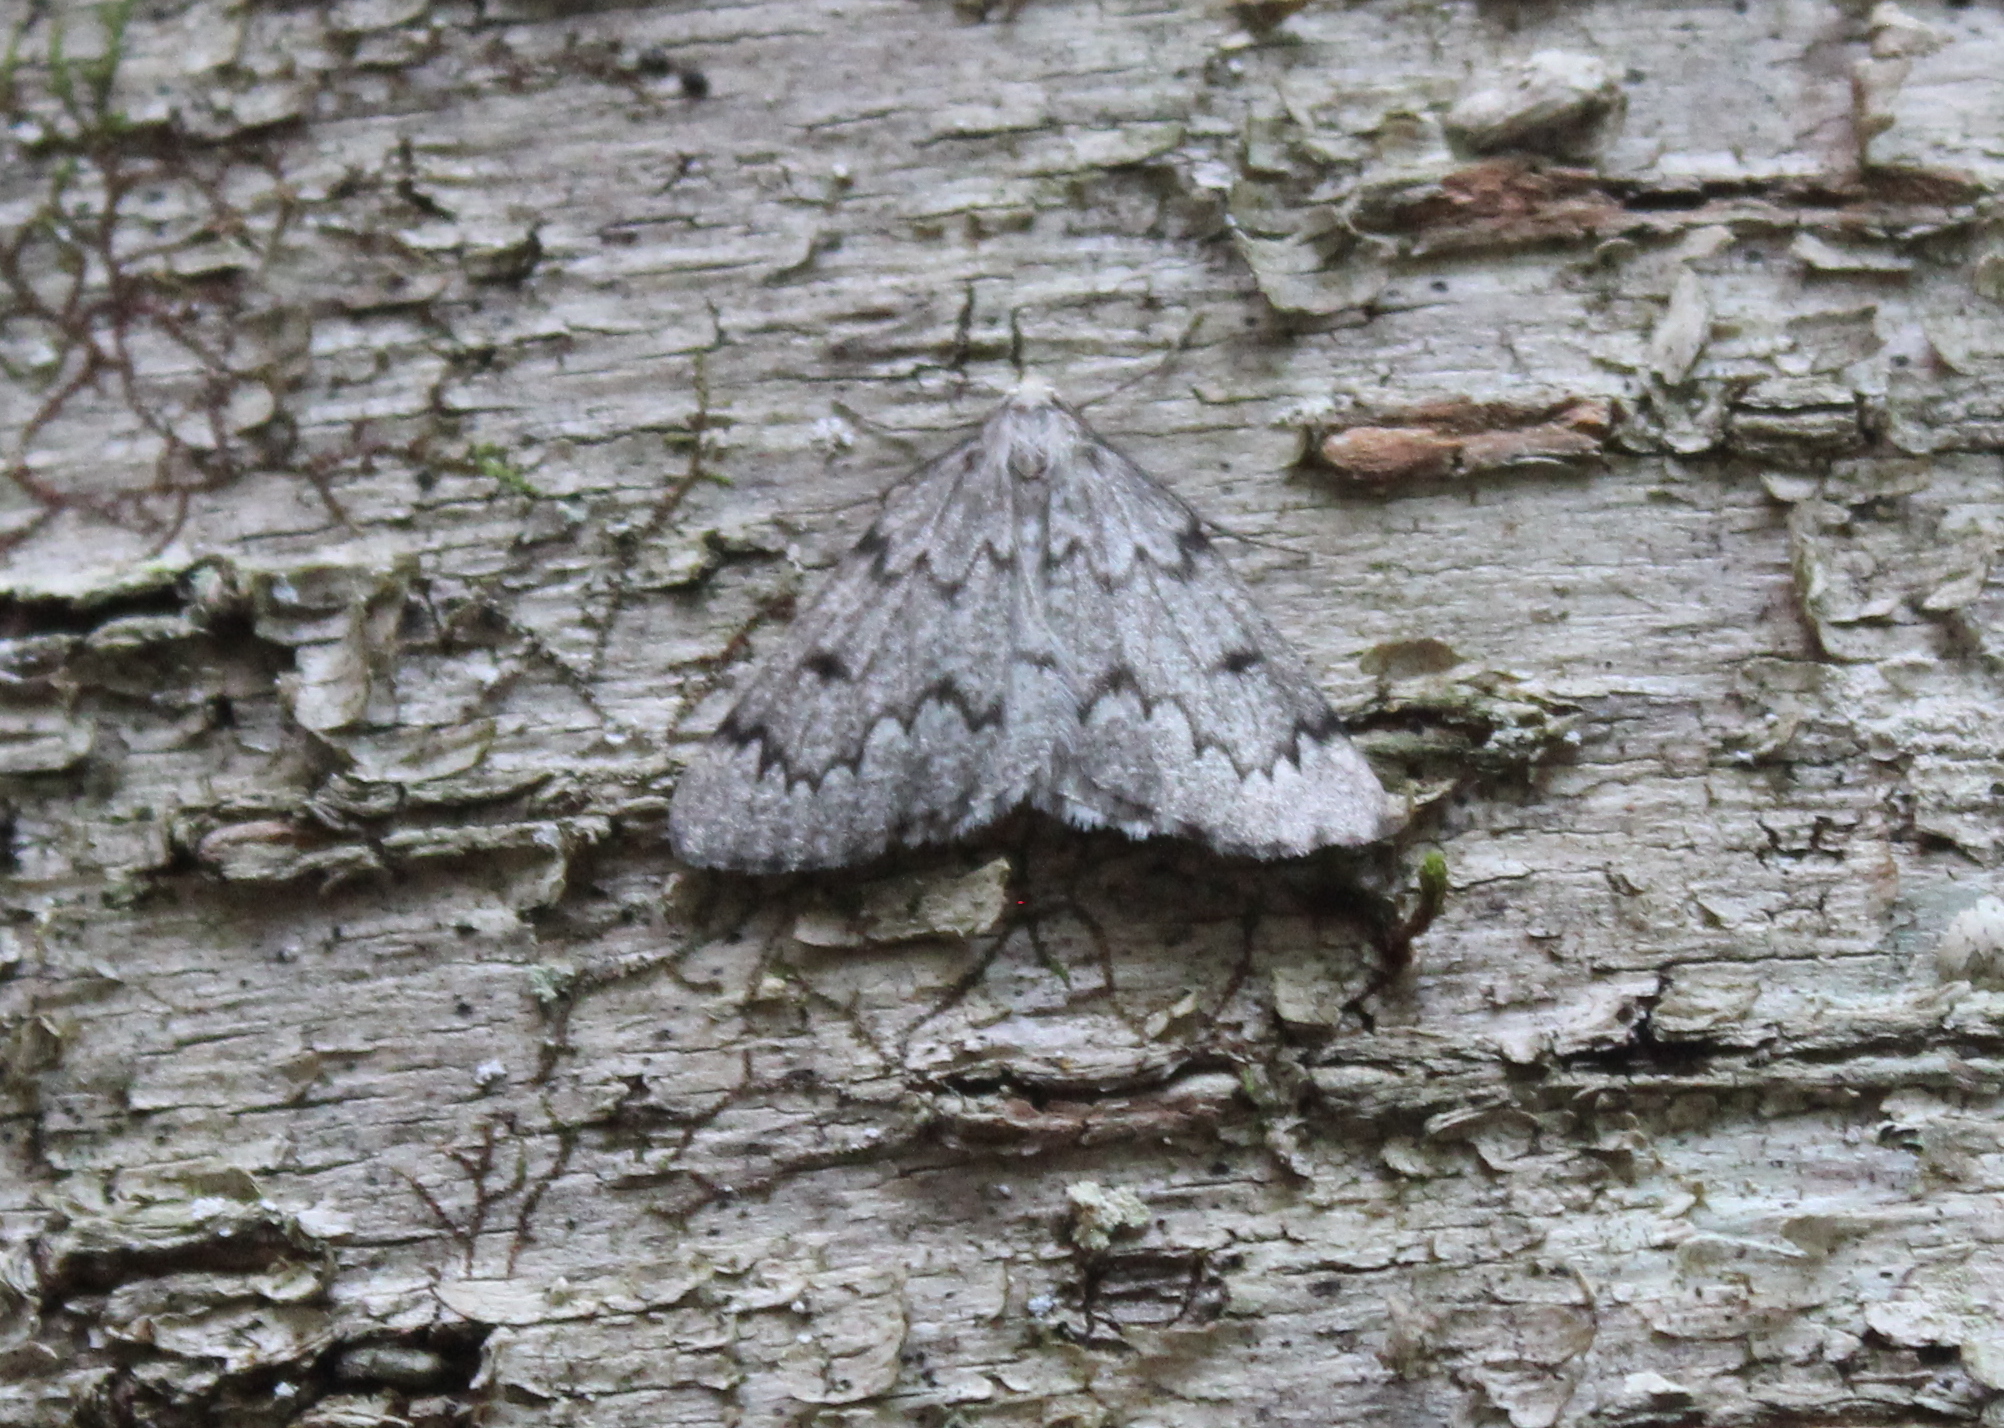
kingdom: Animalia
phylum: Arthropoda
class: Insecta
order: Lepidoptera
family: Geometridae
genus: Nepytia
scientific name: Nepytia canosaria
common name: False hemlock looper
